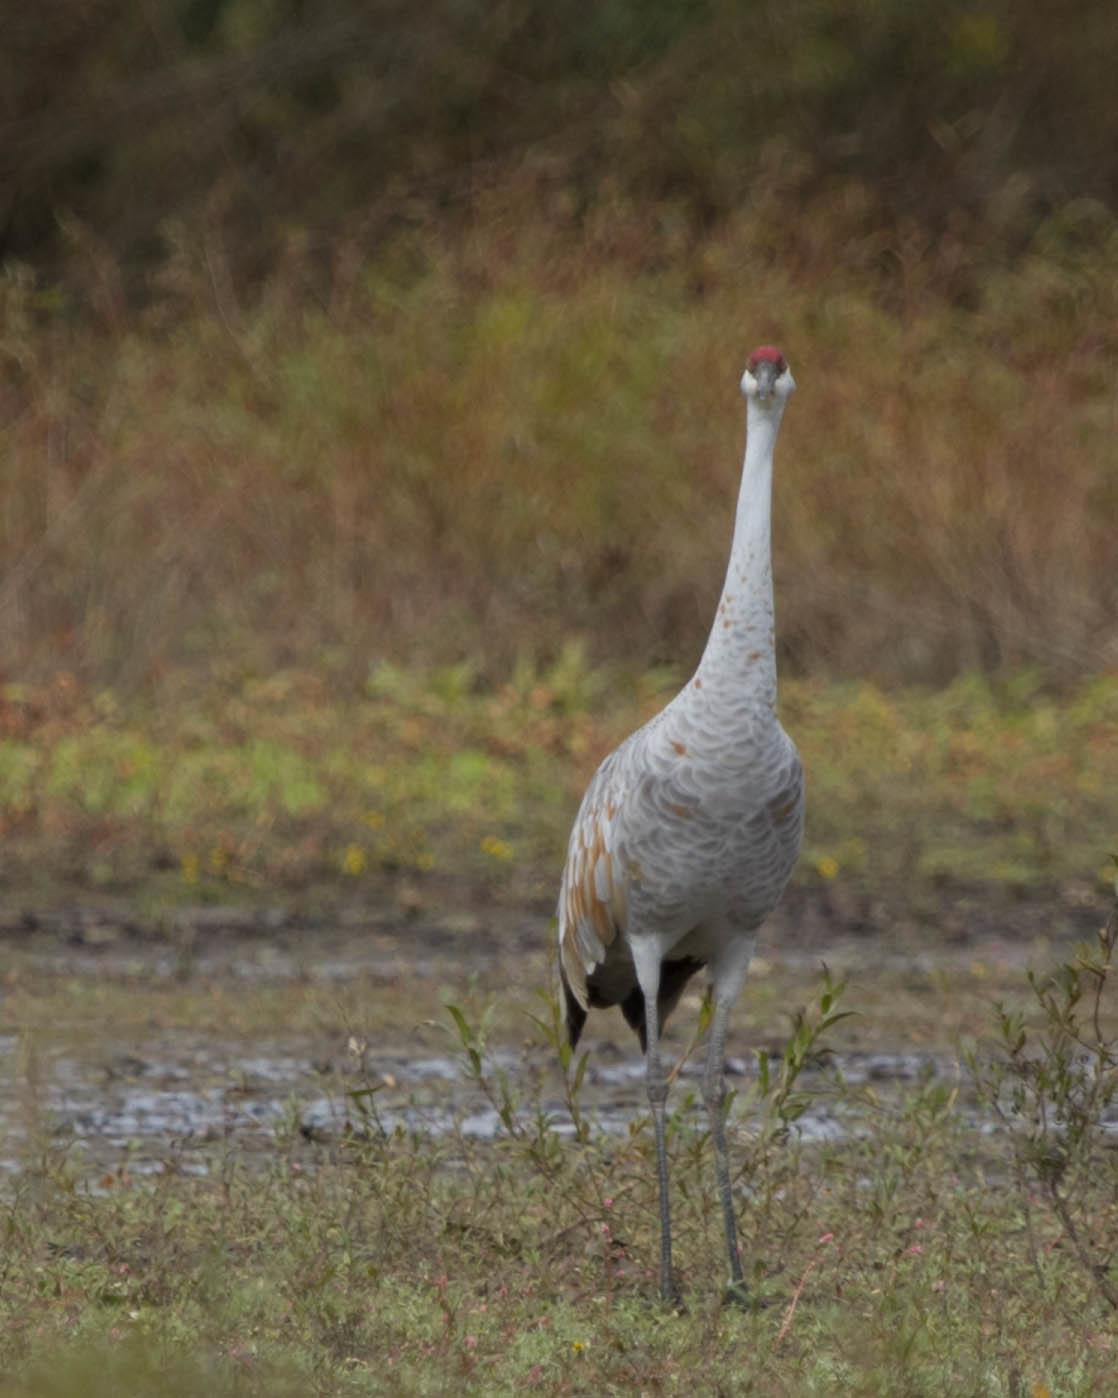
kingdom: Animalia
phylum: Chordata
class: Aves
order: Gruiformes
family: Gruidae
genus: Grus
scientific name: Grus canadensis
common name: Sandhill crane
